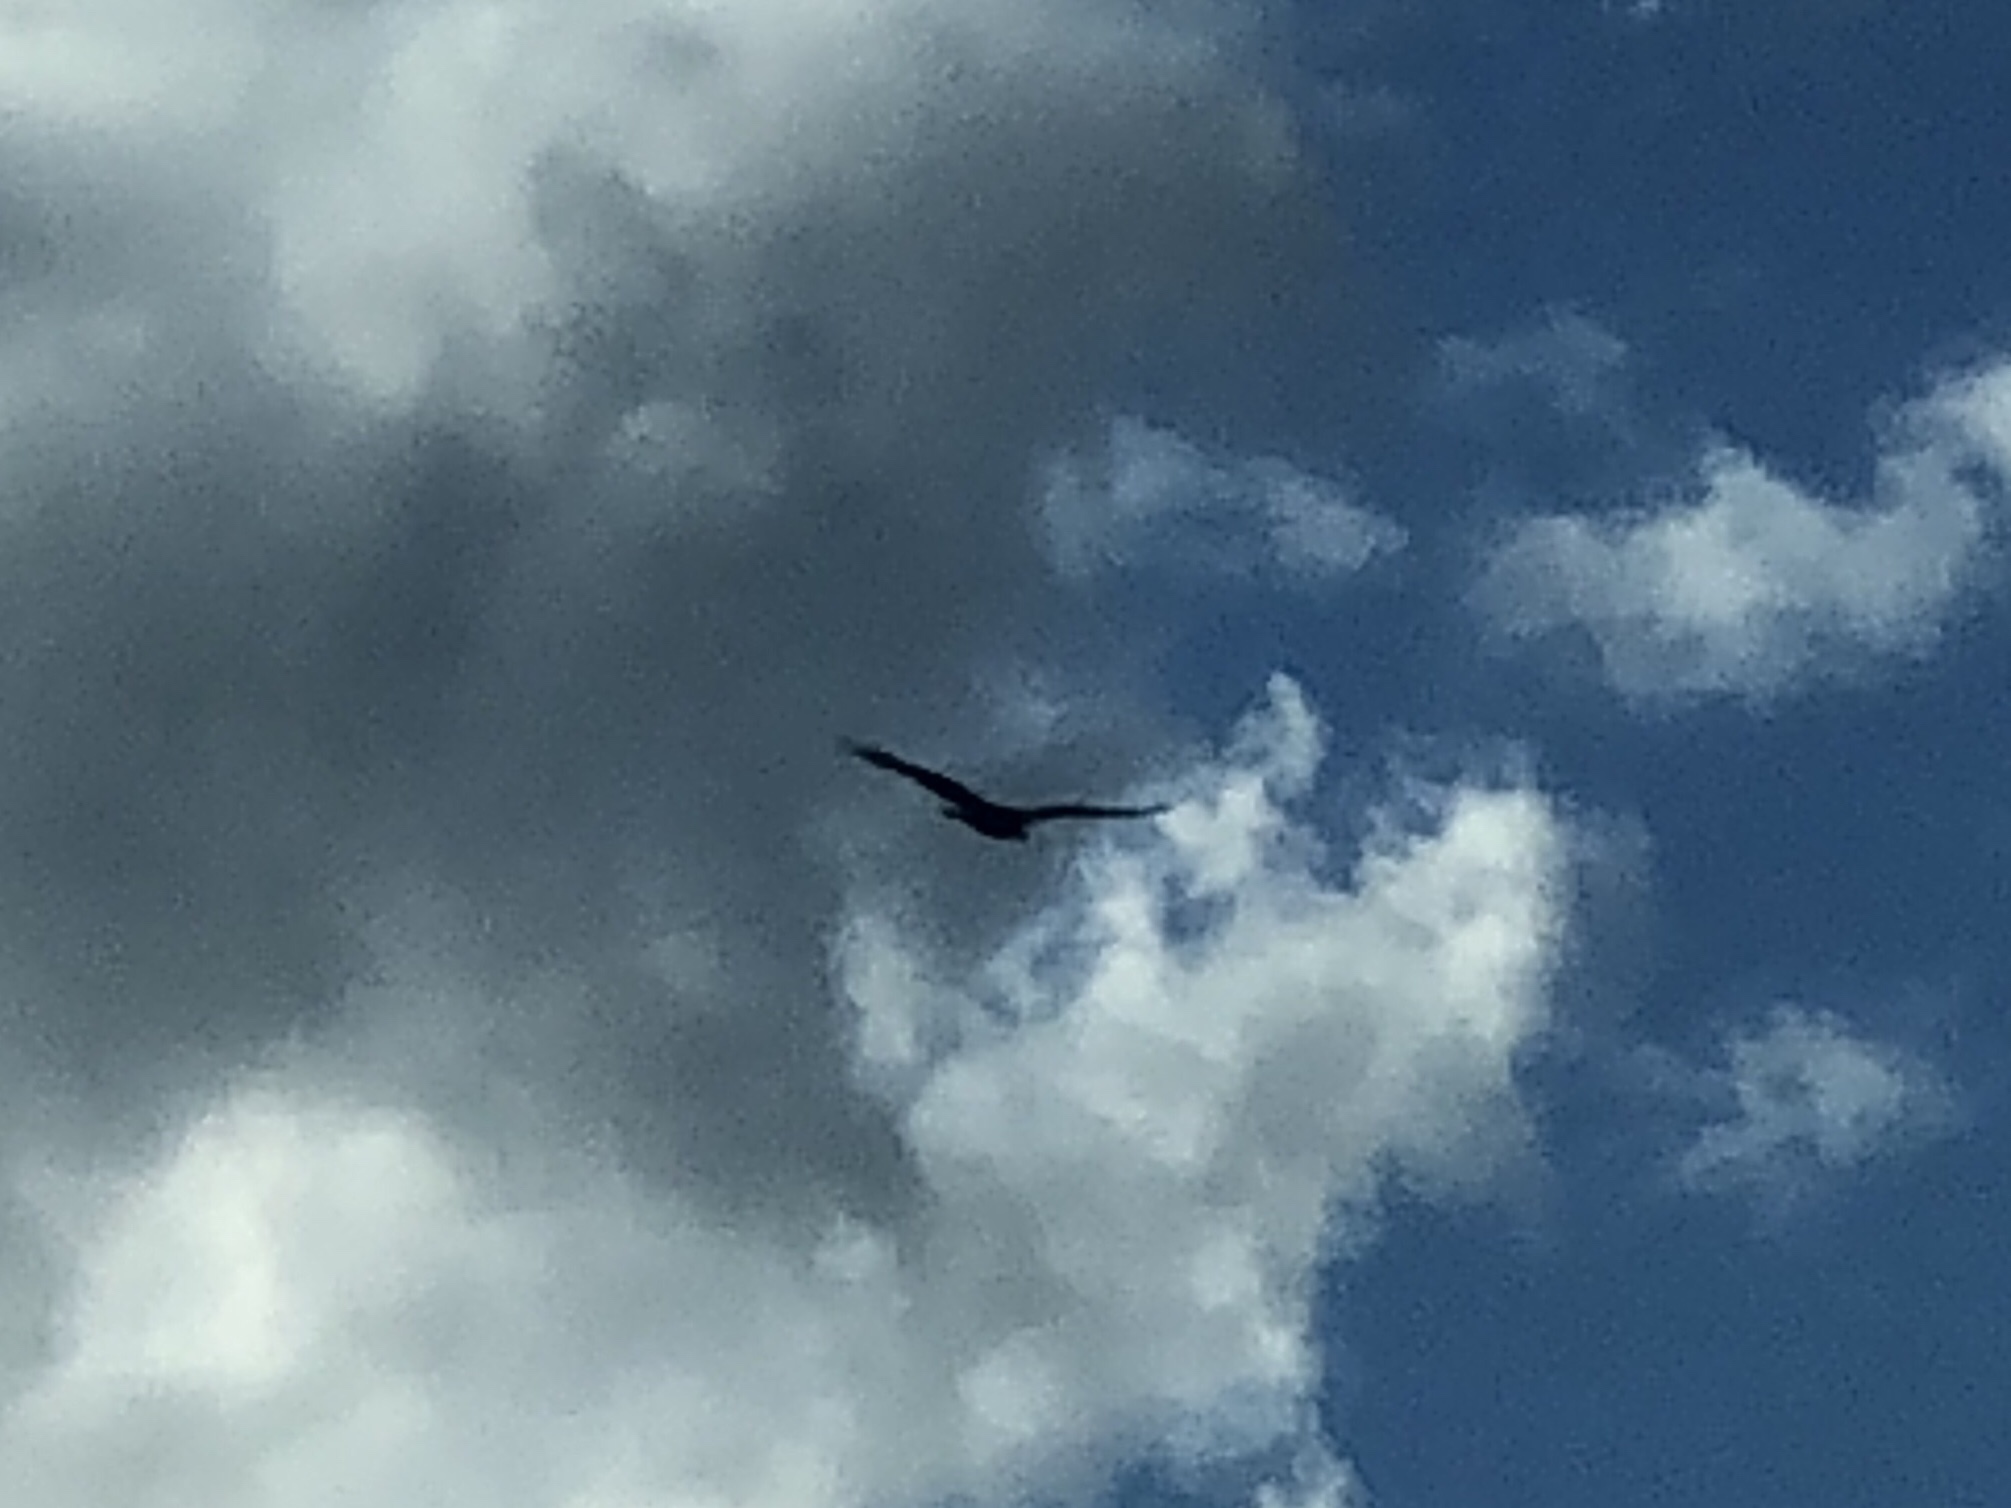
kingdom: Animalia
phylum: Chordata
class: Aves
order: Accipitriformes
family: Cathartidae
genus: Cathartes
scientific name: Cathartes aura
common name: Turkey vulture
